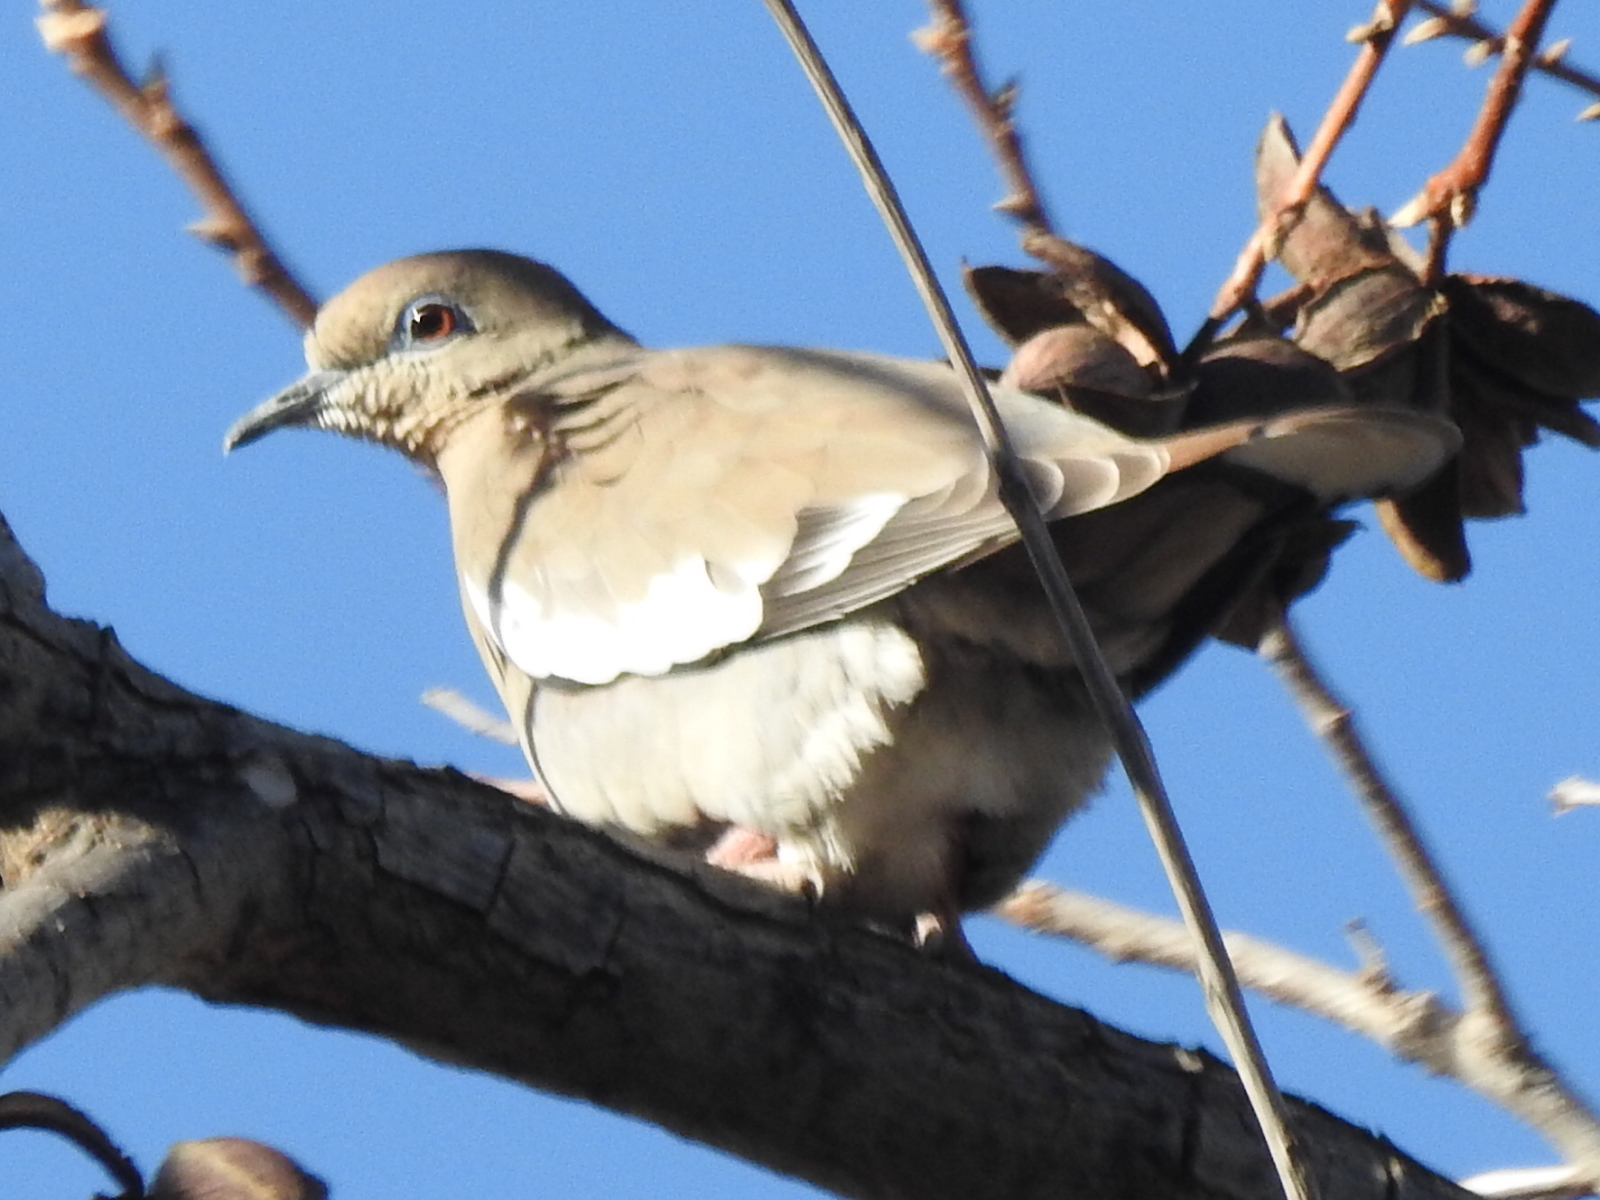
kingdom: Animalia
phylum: Chordata
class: Aves
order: Columbiformes
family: Columbidae
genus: Zenaida
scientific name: Zenaida asiatica
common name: White-winged dove
